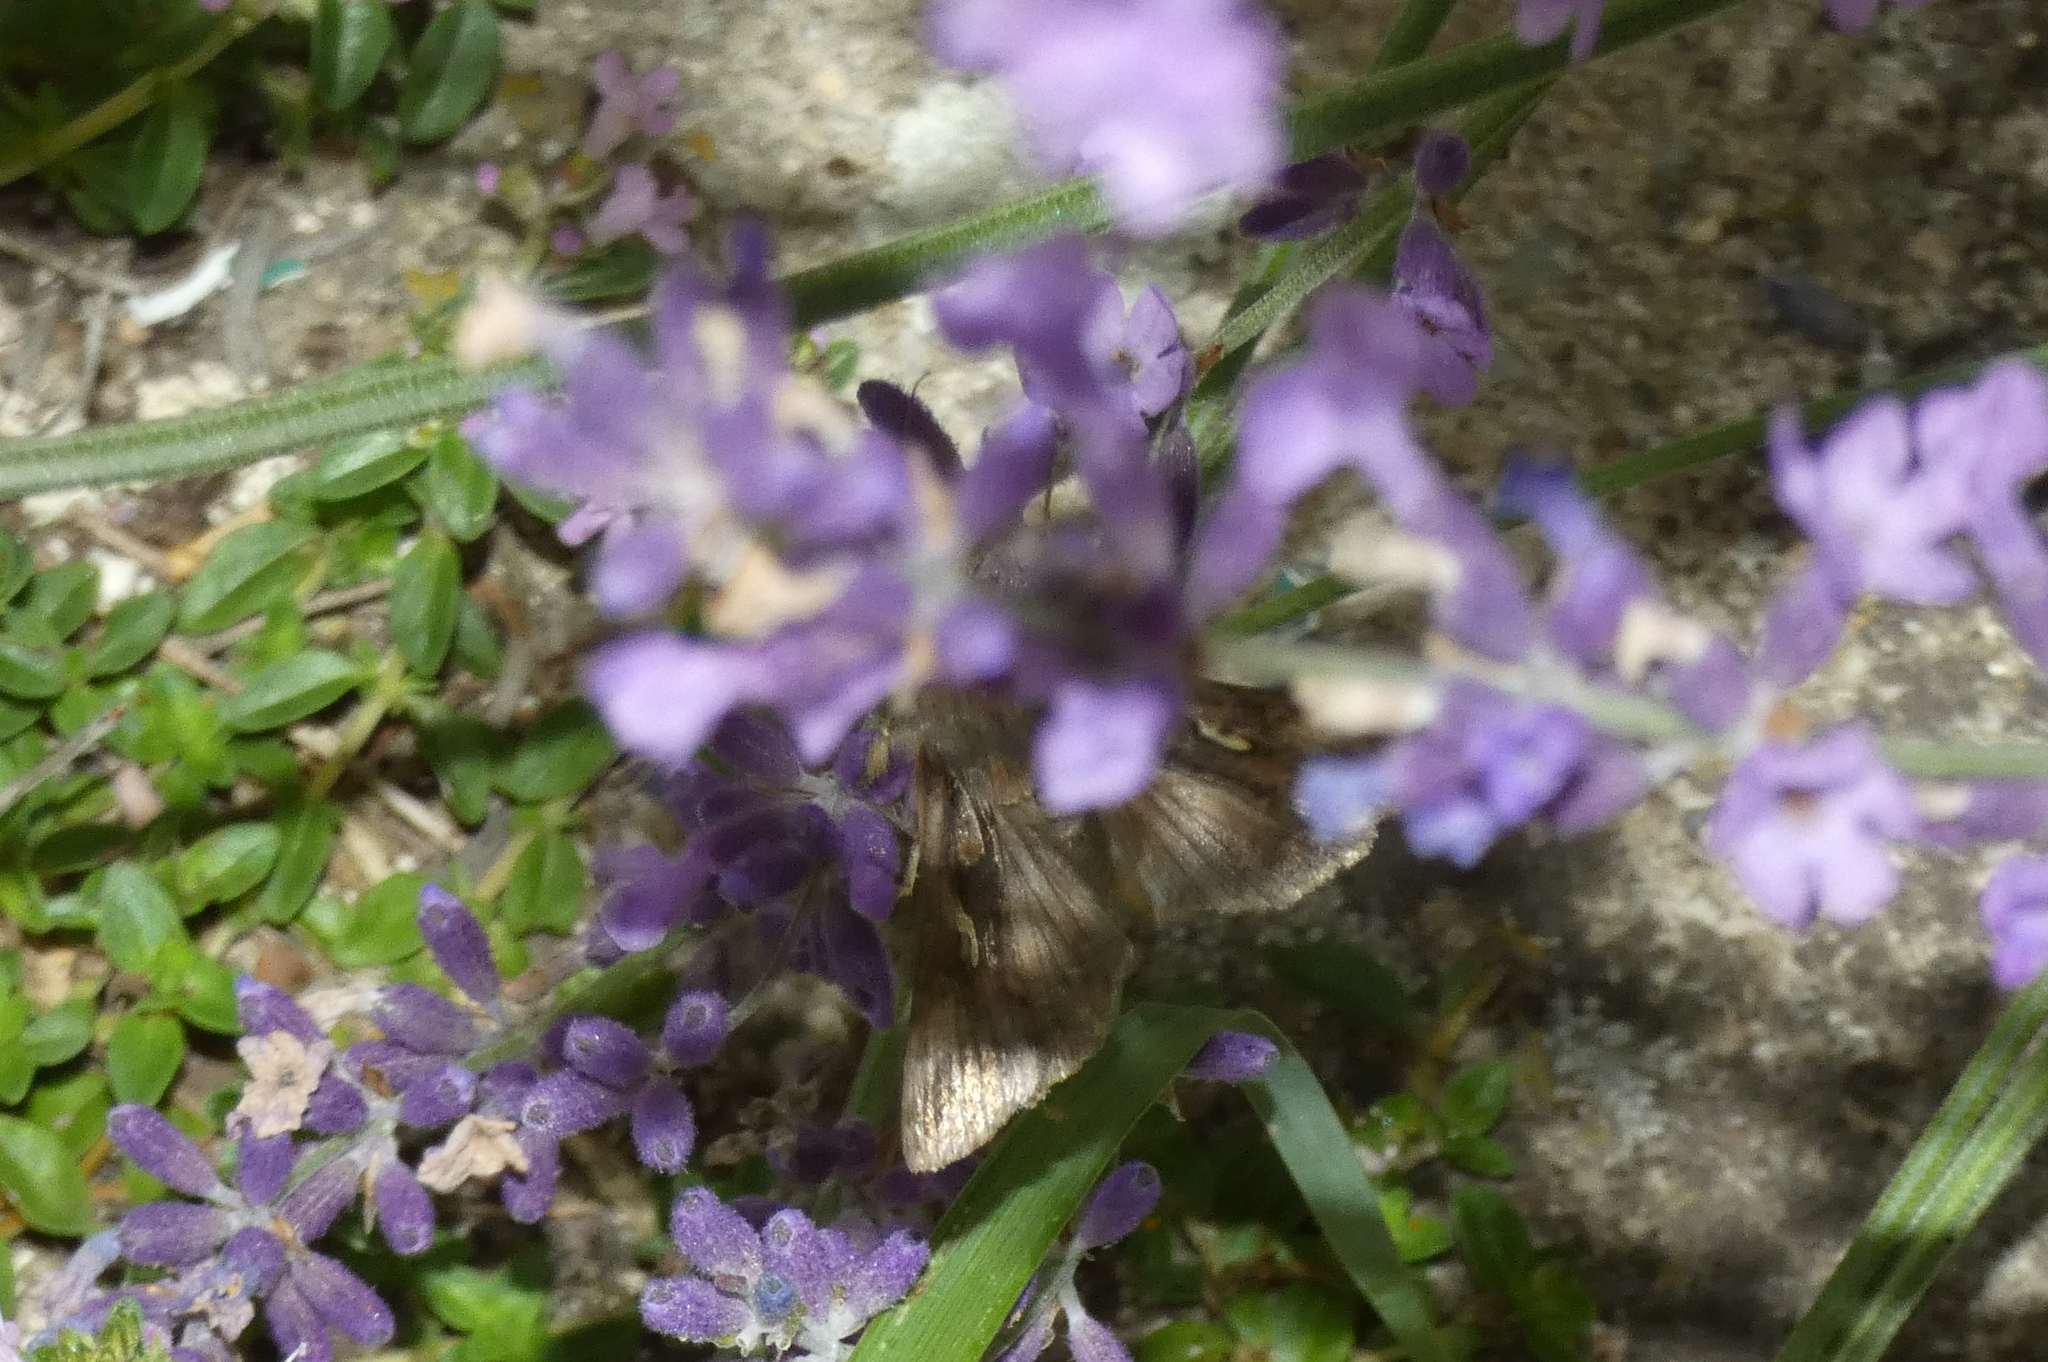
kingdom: Animalia
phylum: Arthropoda
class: Insecta
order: Lepidoptera
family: Noctuidae
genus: Autographa
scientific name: Autographa gamma
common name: Silver y
